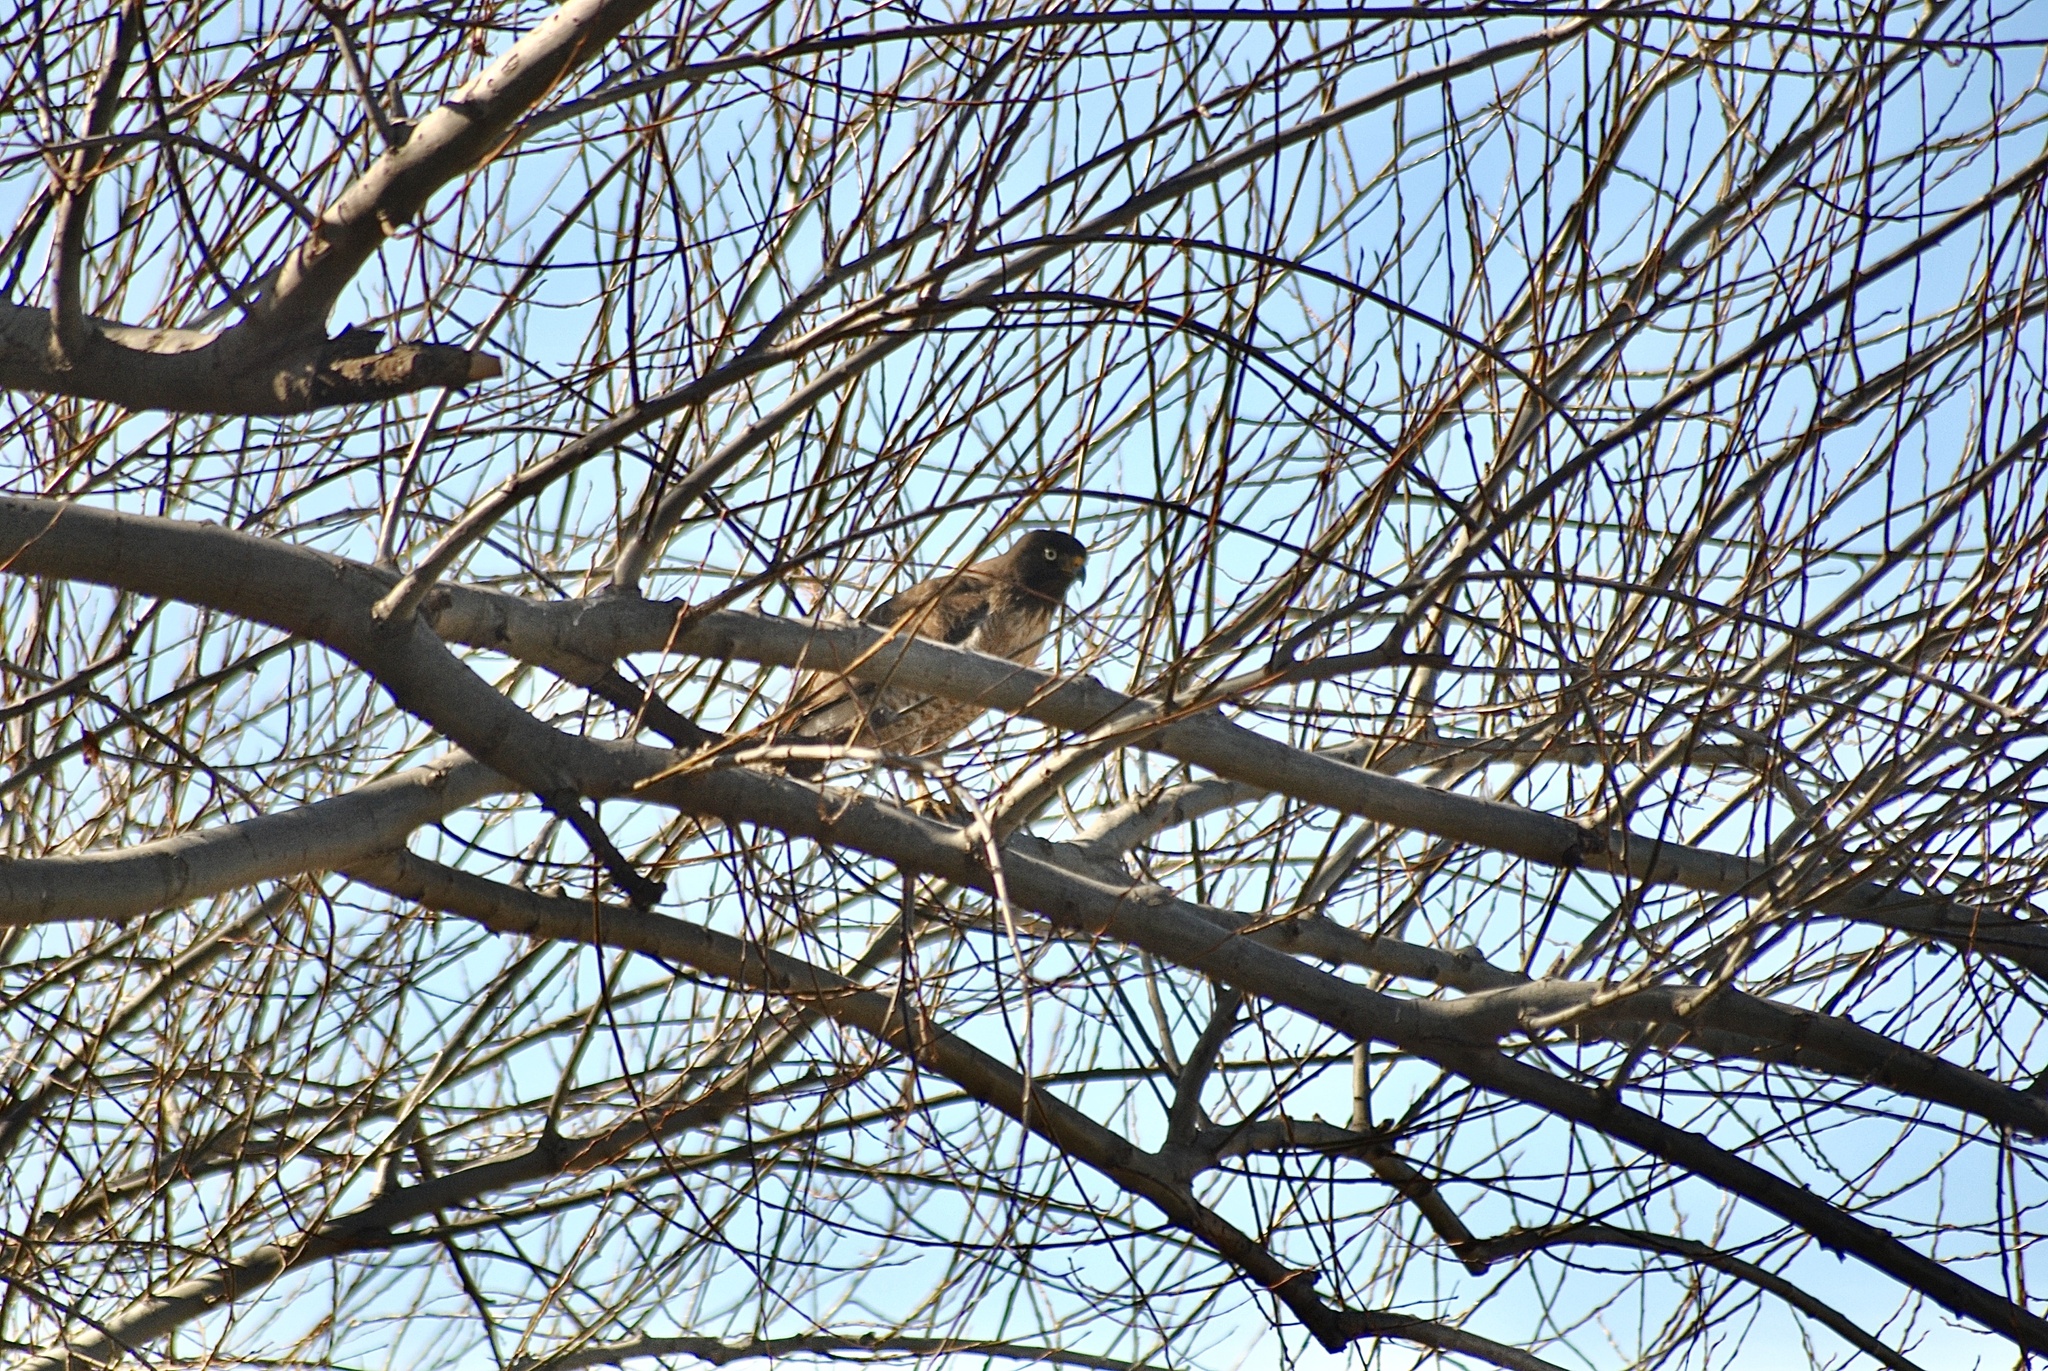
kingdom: Animalia
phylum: Chordata
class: Aves
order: Accipitriformes
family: Accipitridae
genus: Rupornis
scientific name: Rupornis magnirostris
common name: Roadside hawk
